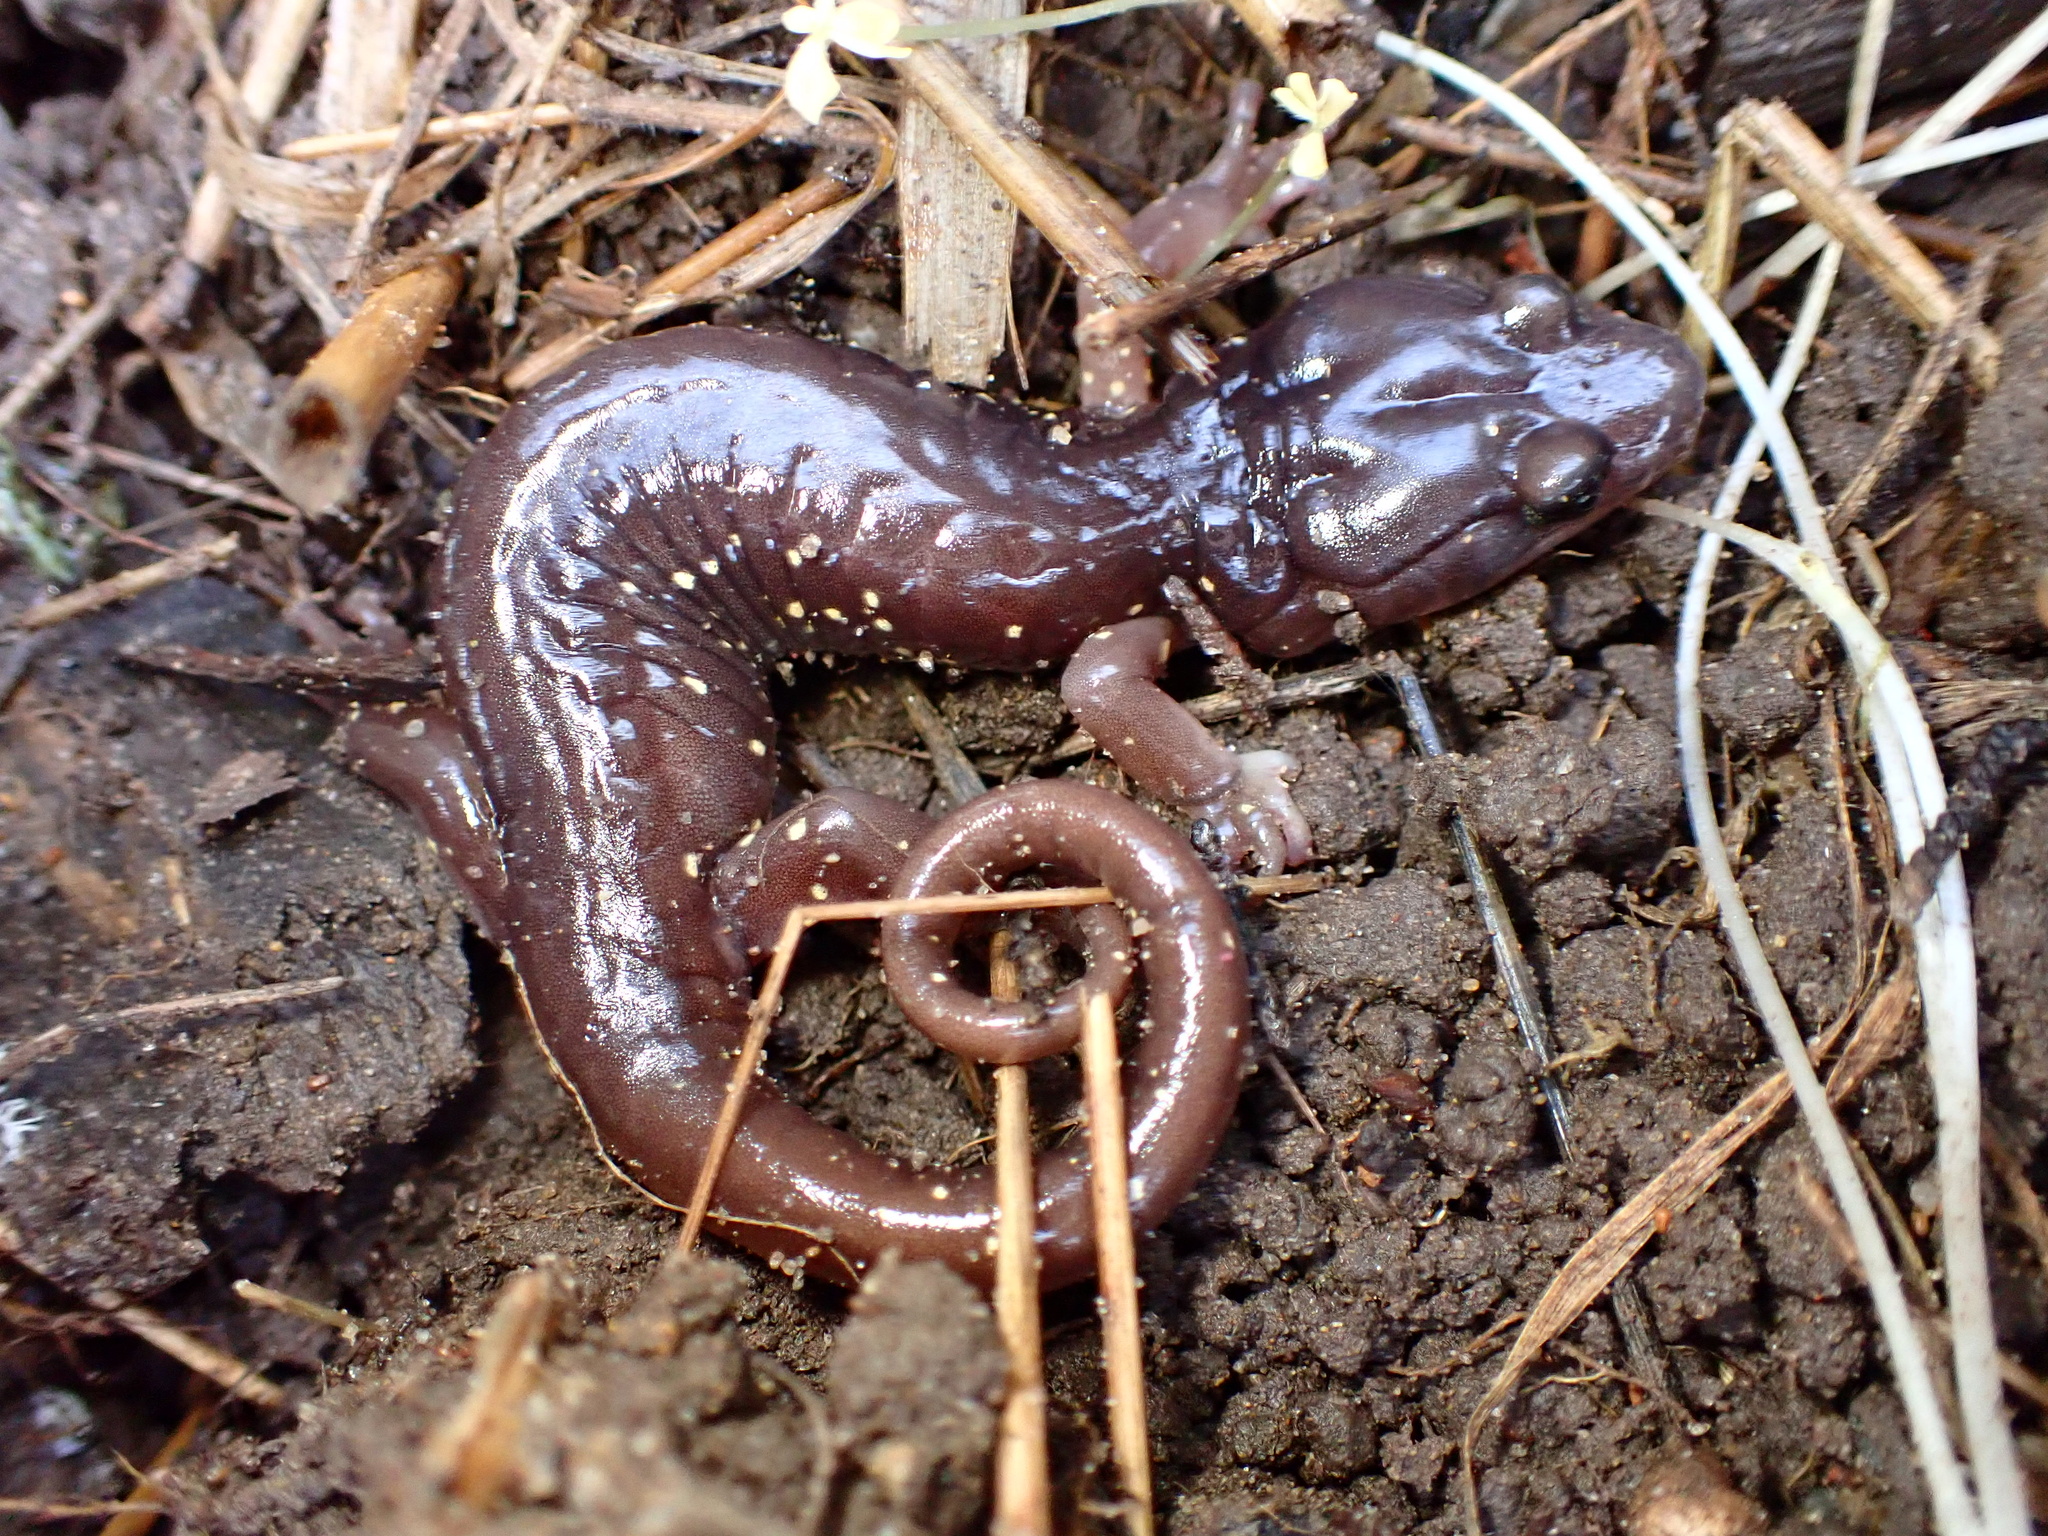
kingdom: Animalia
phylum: Chordata
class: Amphibia
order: Caudata
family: Plethodontidae
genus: Aneides
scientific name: Aneides lugubris
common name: Arboreal salamander
